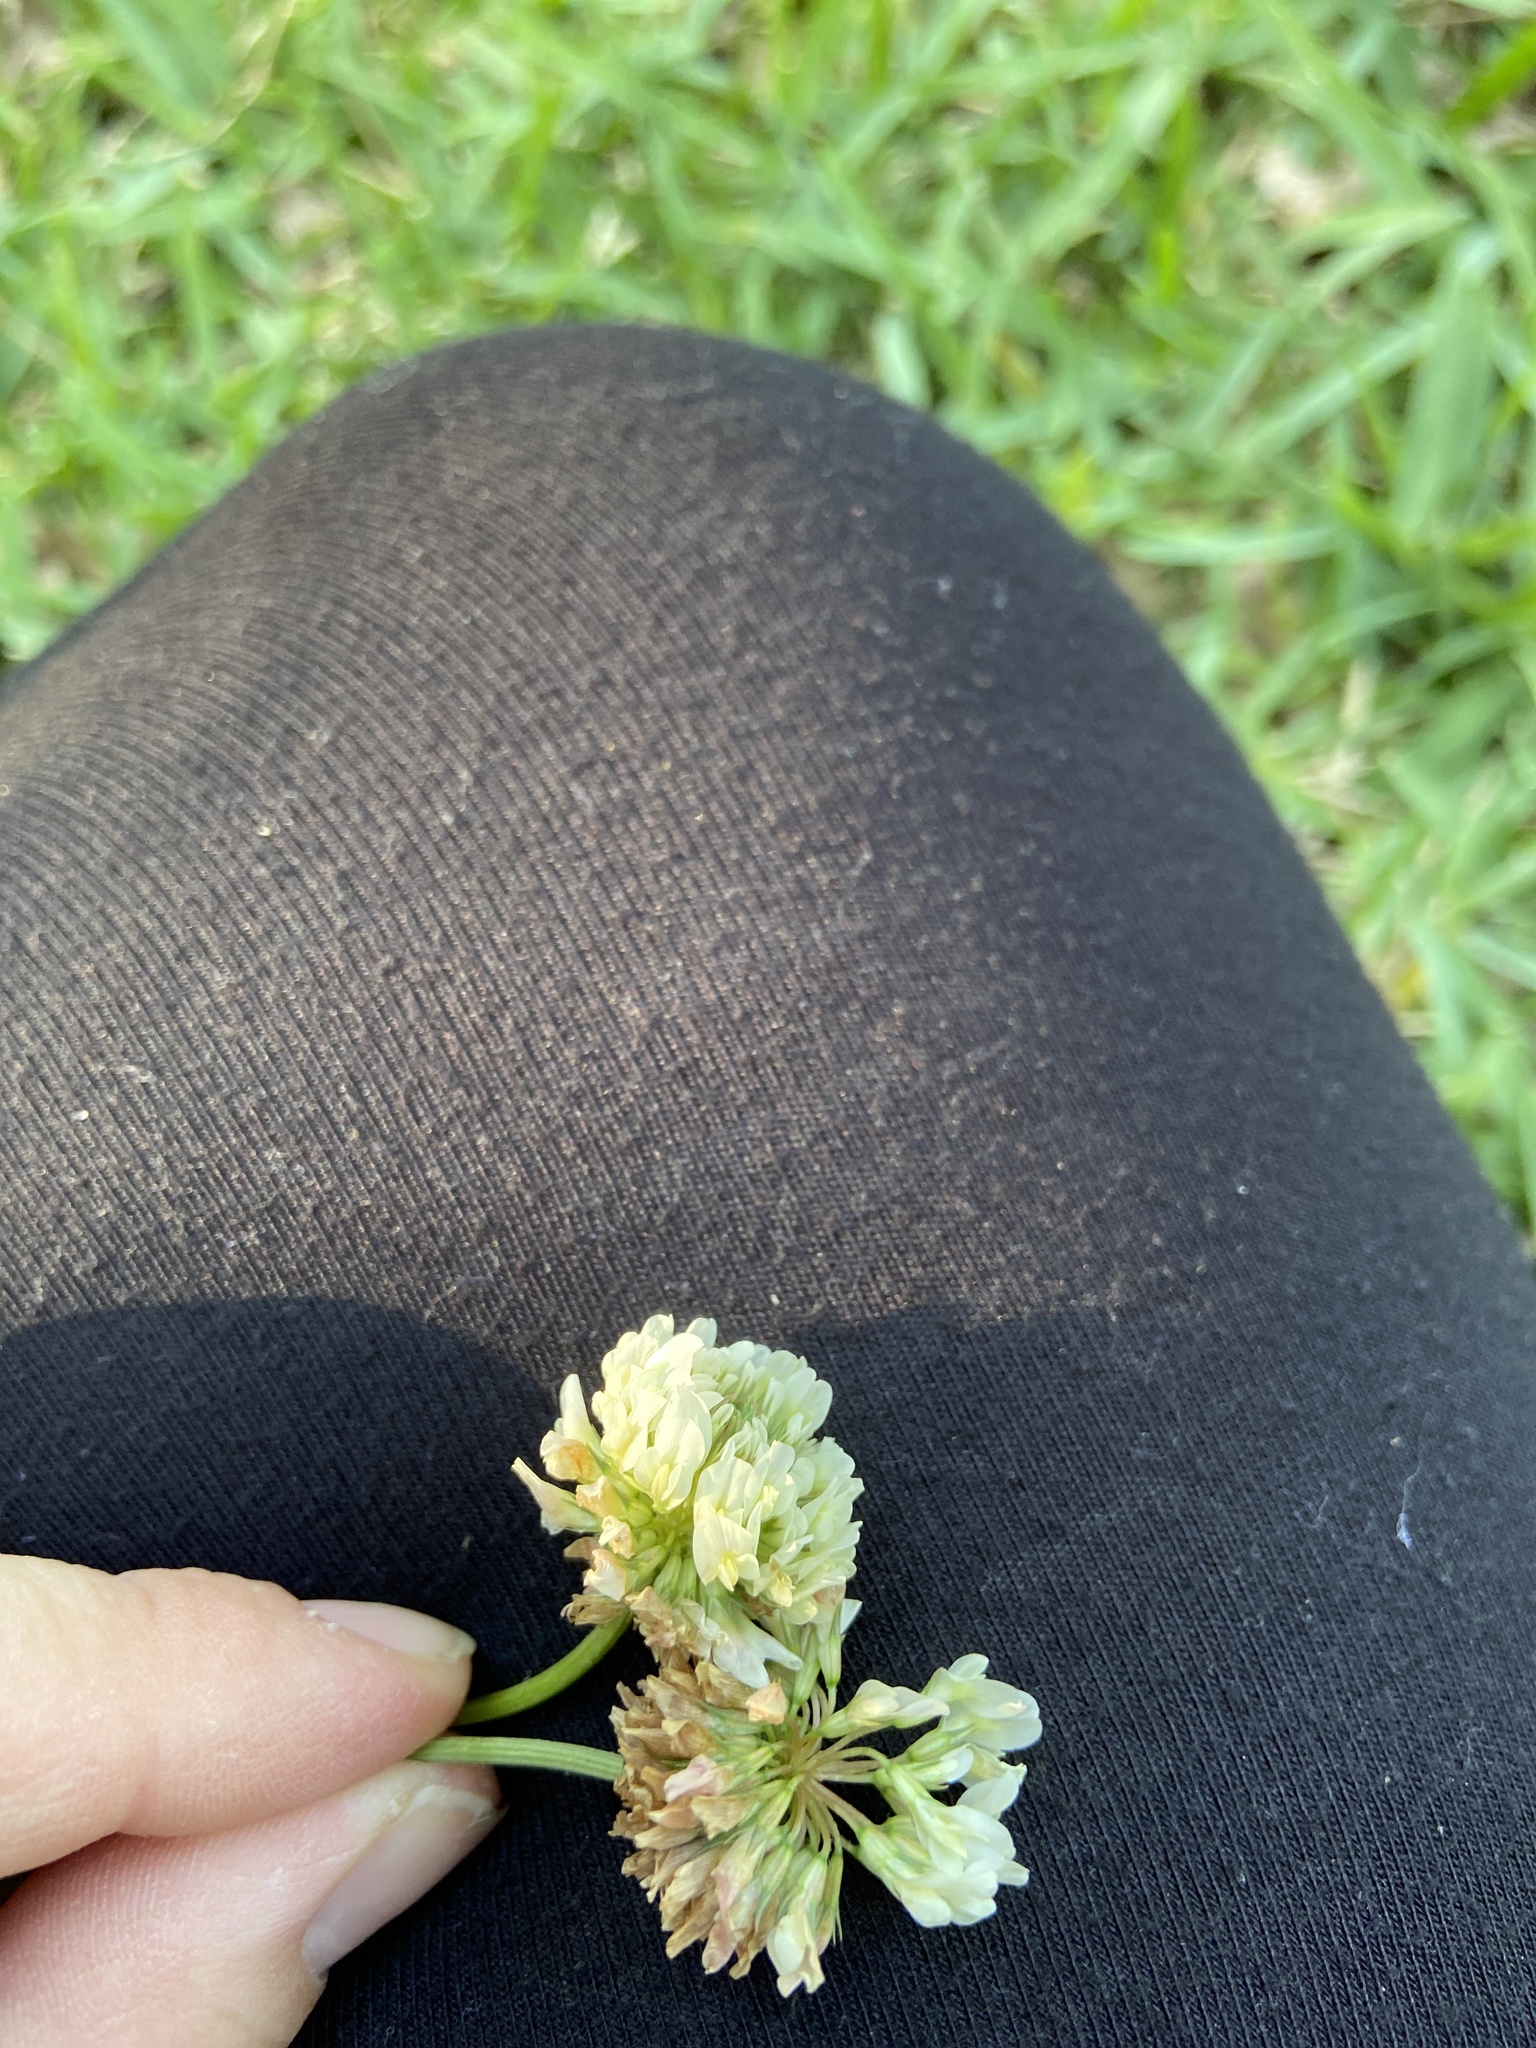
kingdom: Plantae
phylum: Tracheophyta
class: Magnoliopsida
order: Fabales
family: Fabaceae
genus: Trifolium
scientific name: Trifolium repens
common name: White clover
